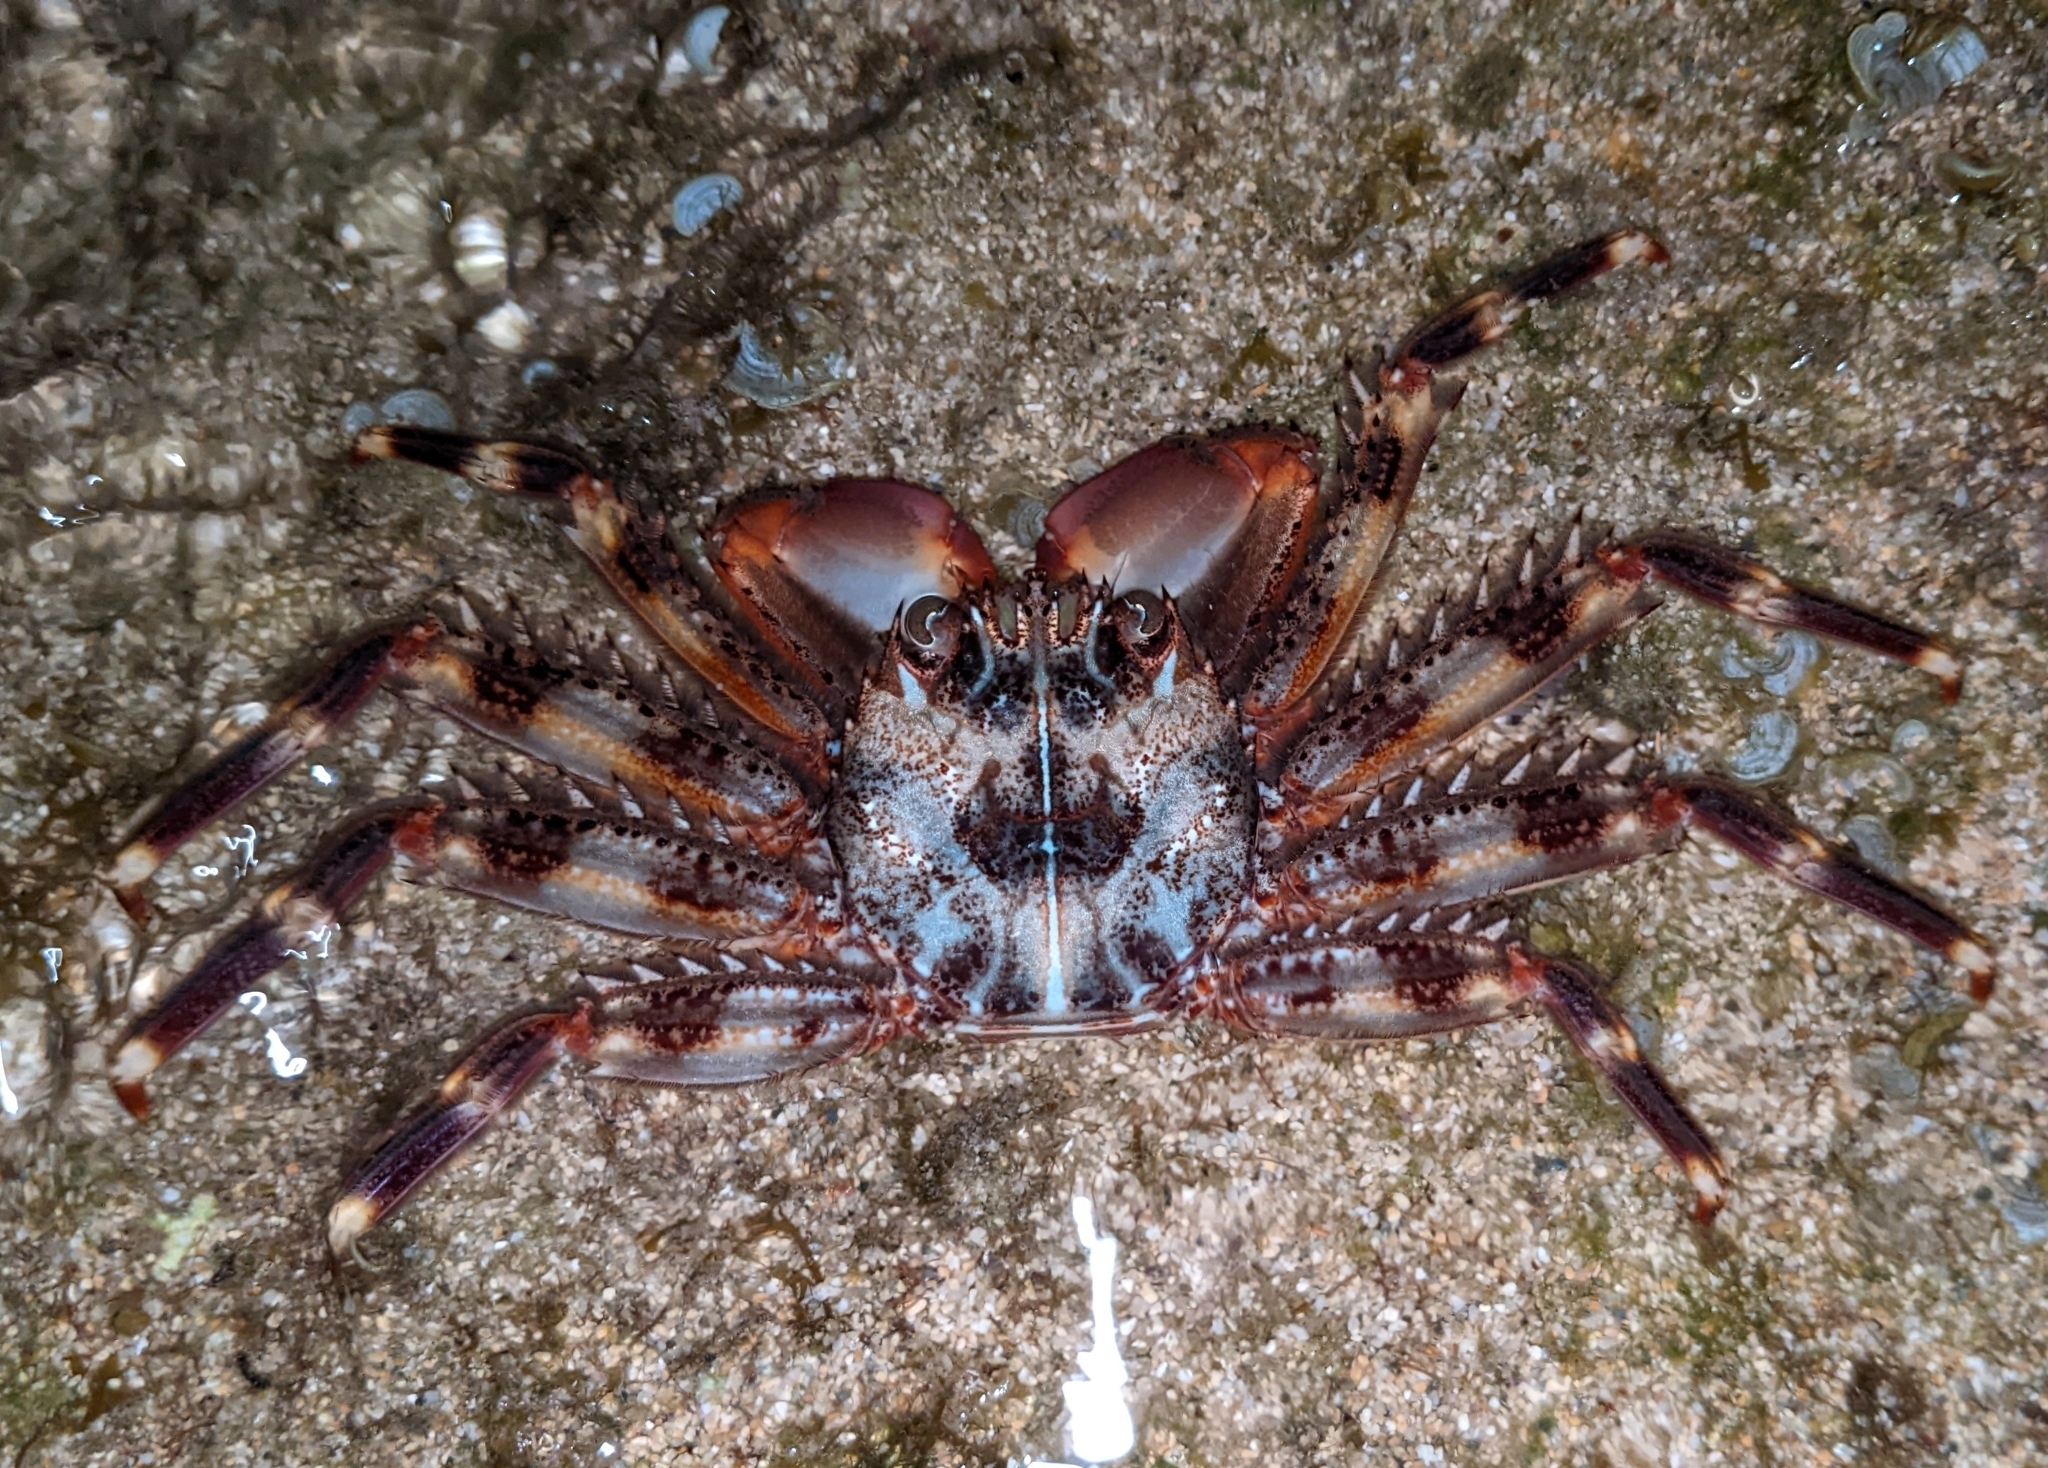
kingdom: Animalia
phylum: Arthropoda
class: Malacostraca
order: Decapoda
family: Percnidae
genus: Percnon
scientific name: Percnon planissimum
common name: Flat rock crab
